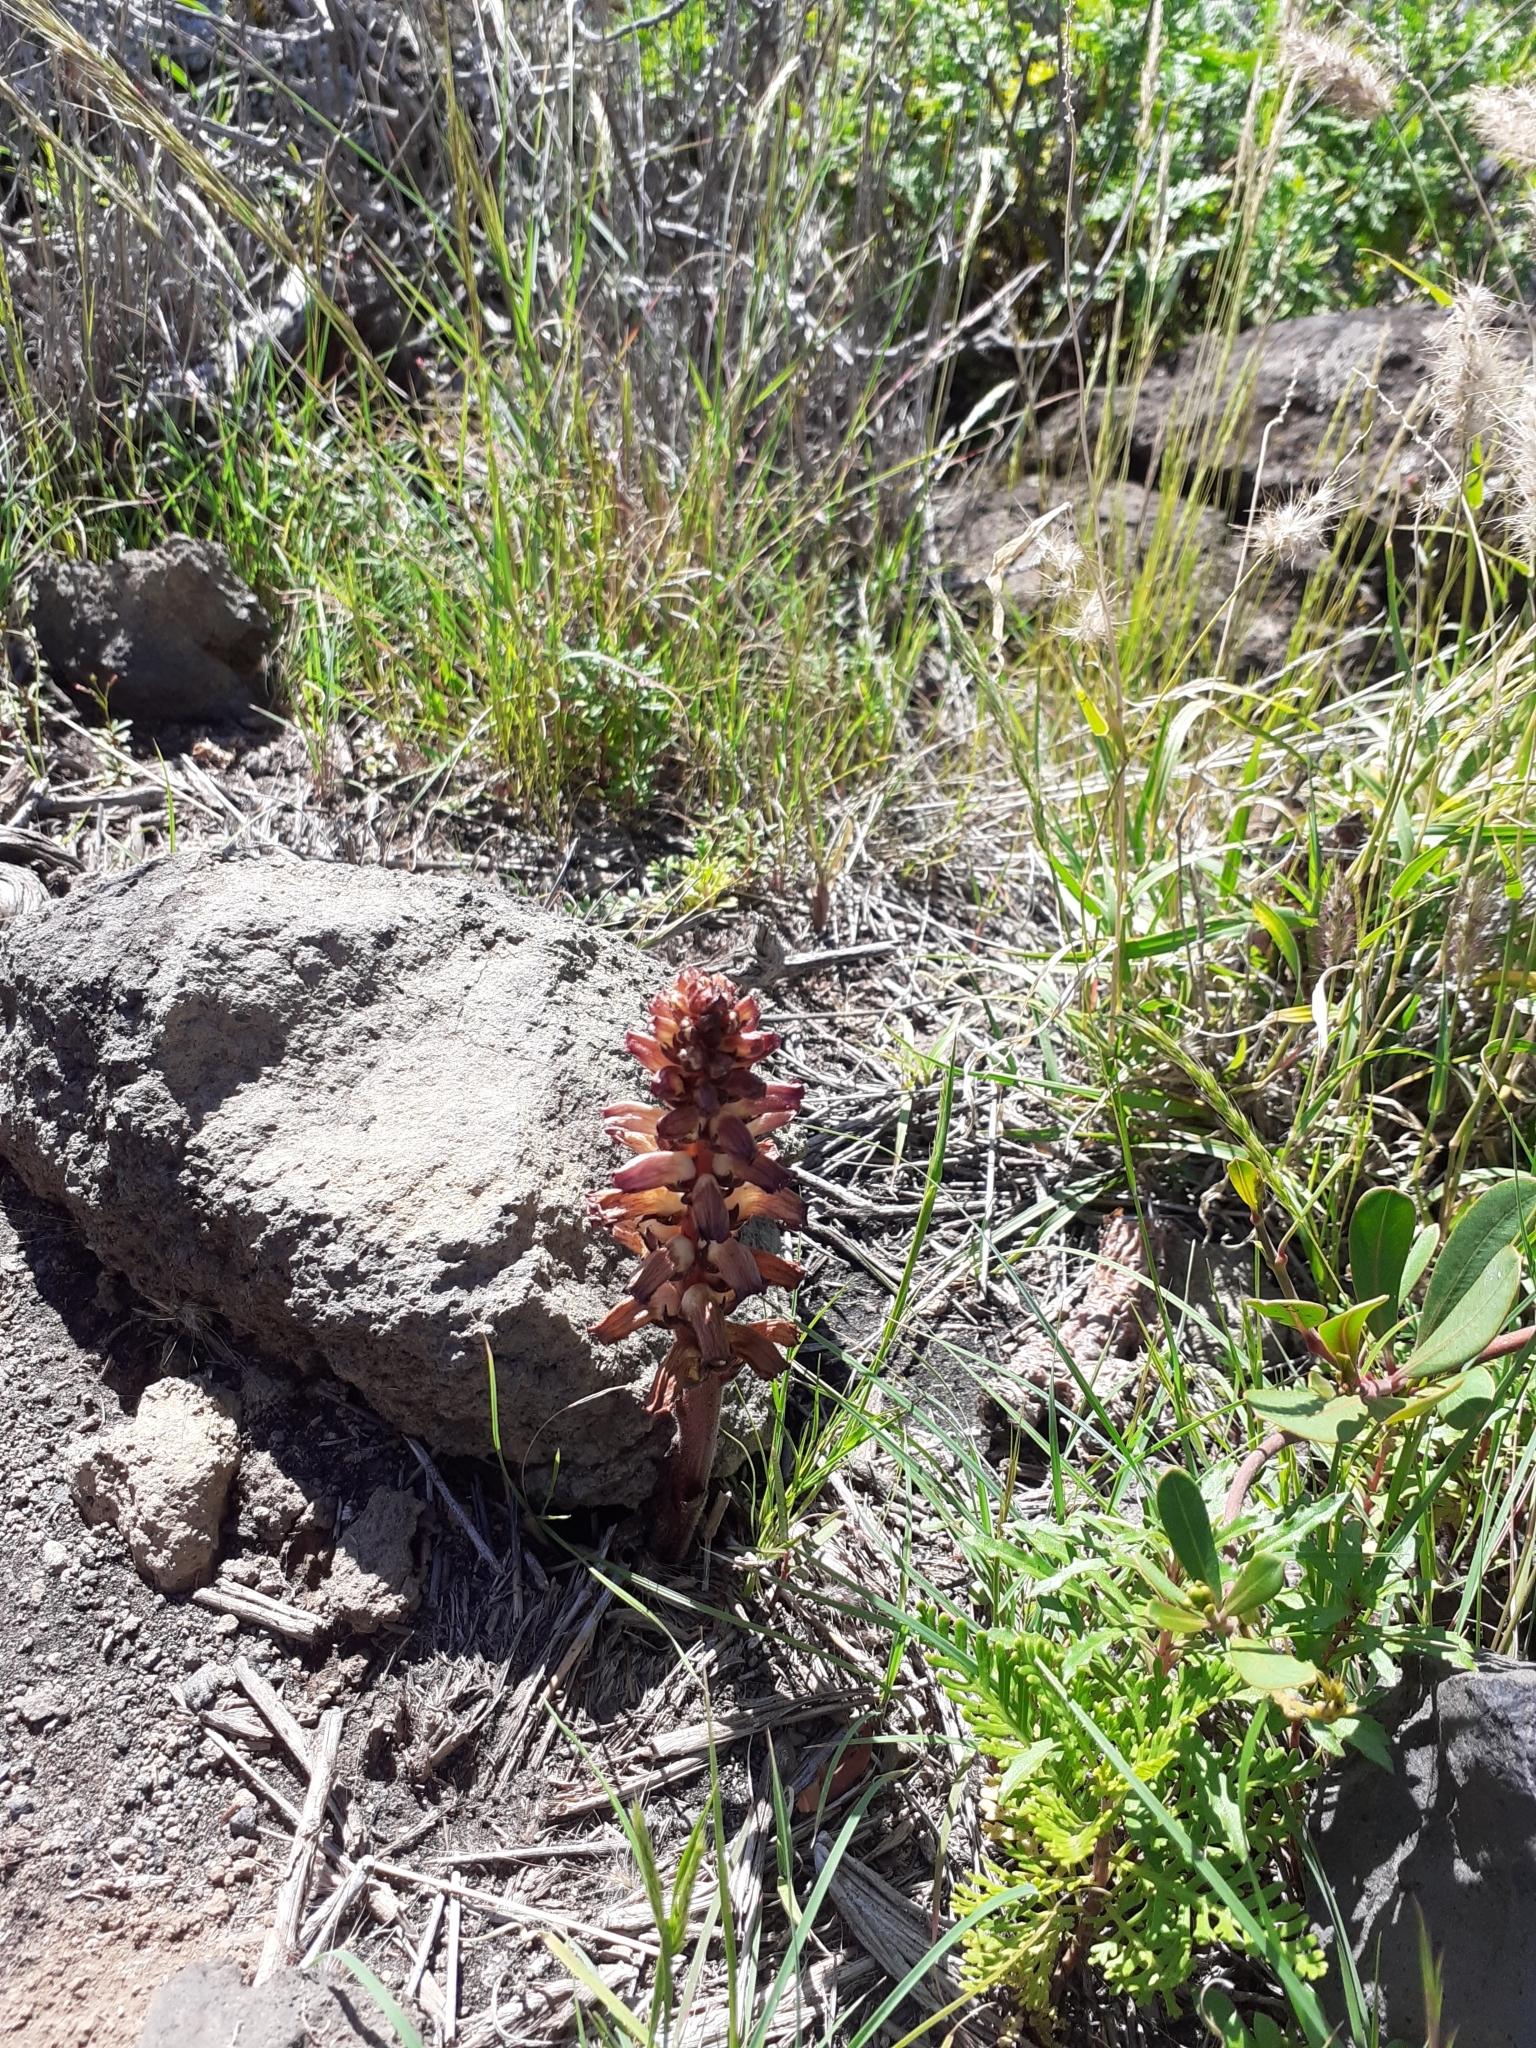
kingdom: Plantae
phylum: Tracheophyta
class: Magnoliopsida
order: Lamiales
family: Orobanchaceae
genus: Orobanche
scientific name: Orobanche cernua
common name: Australian broomrape
